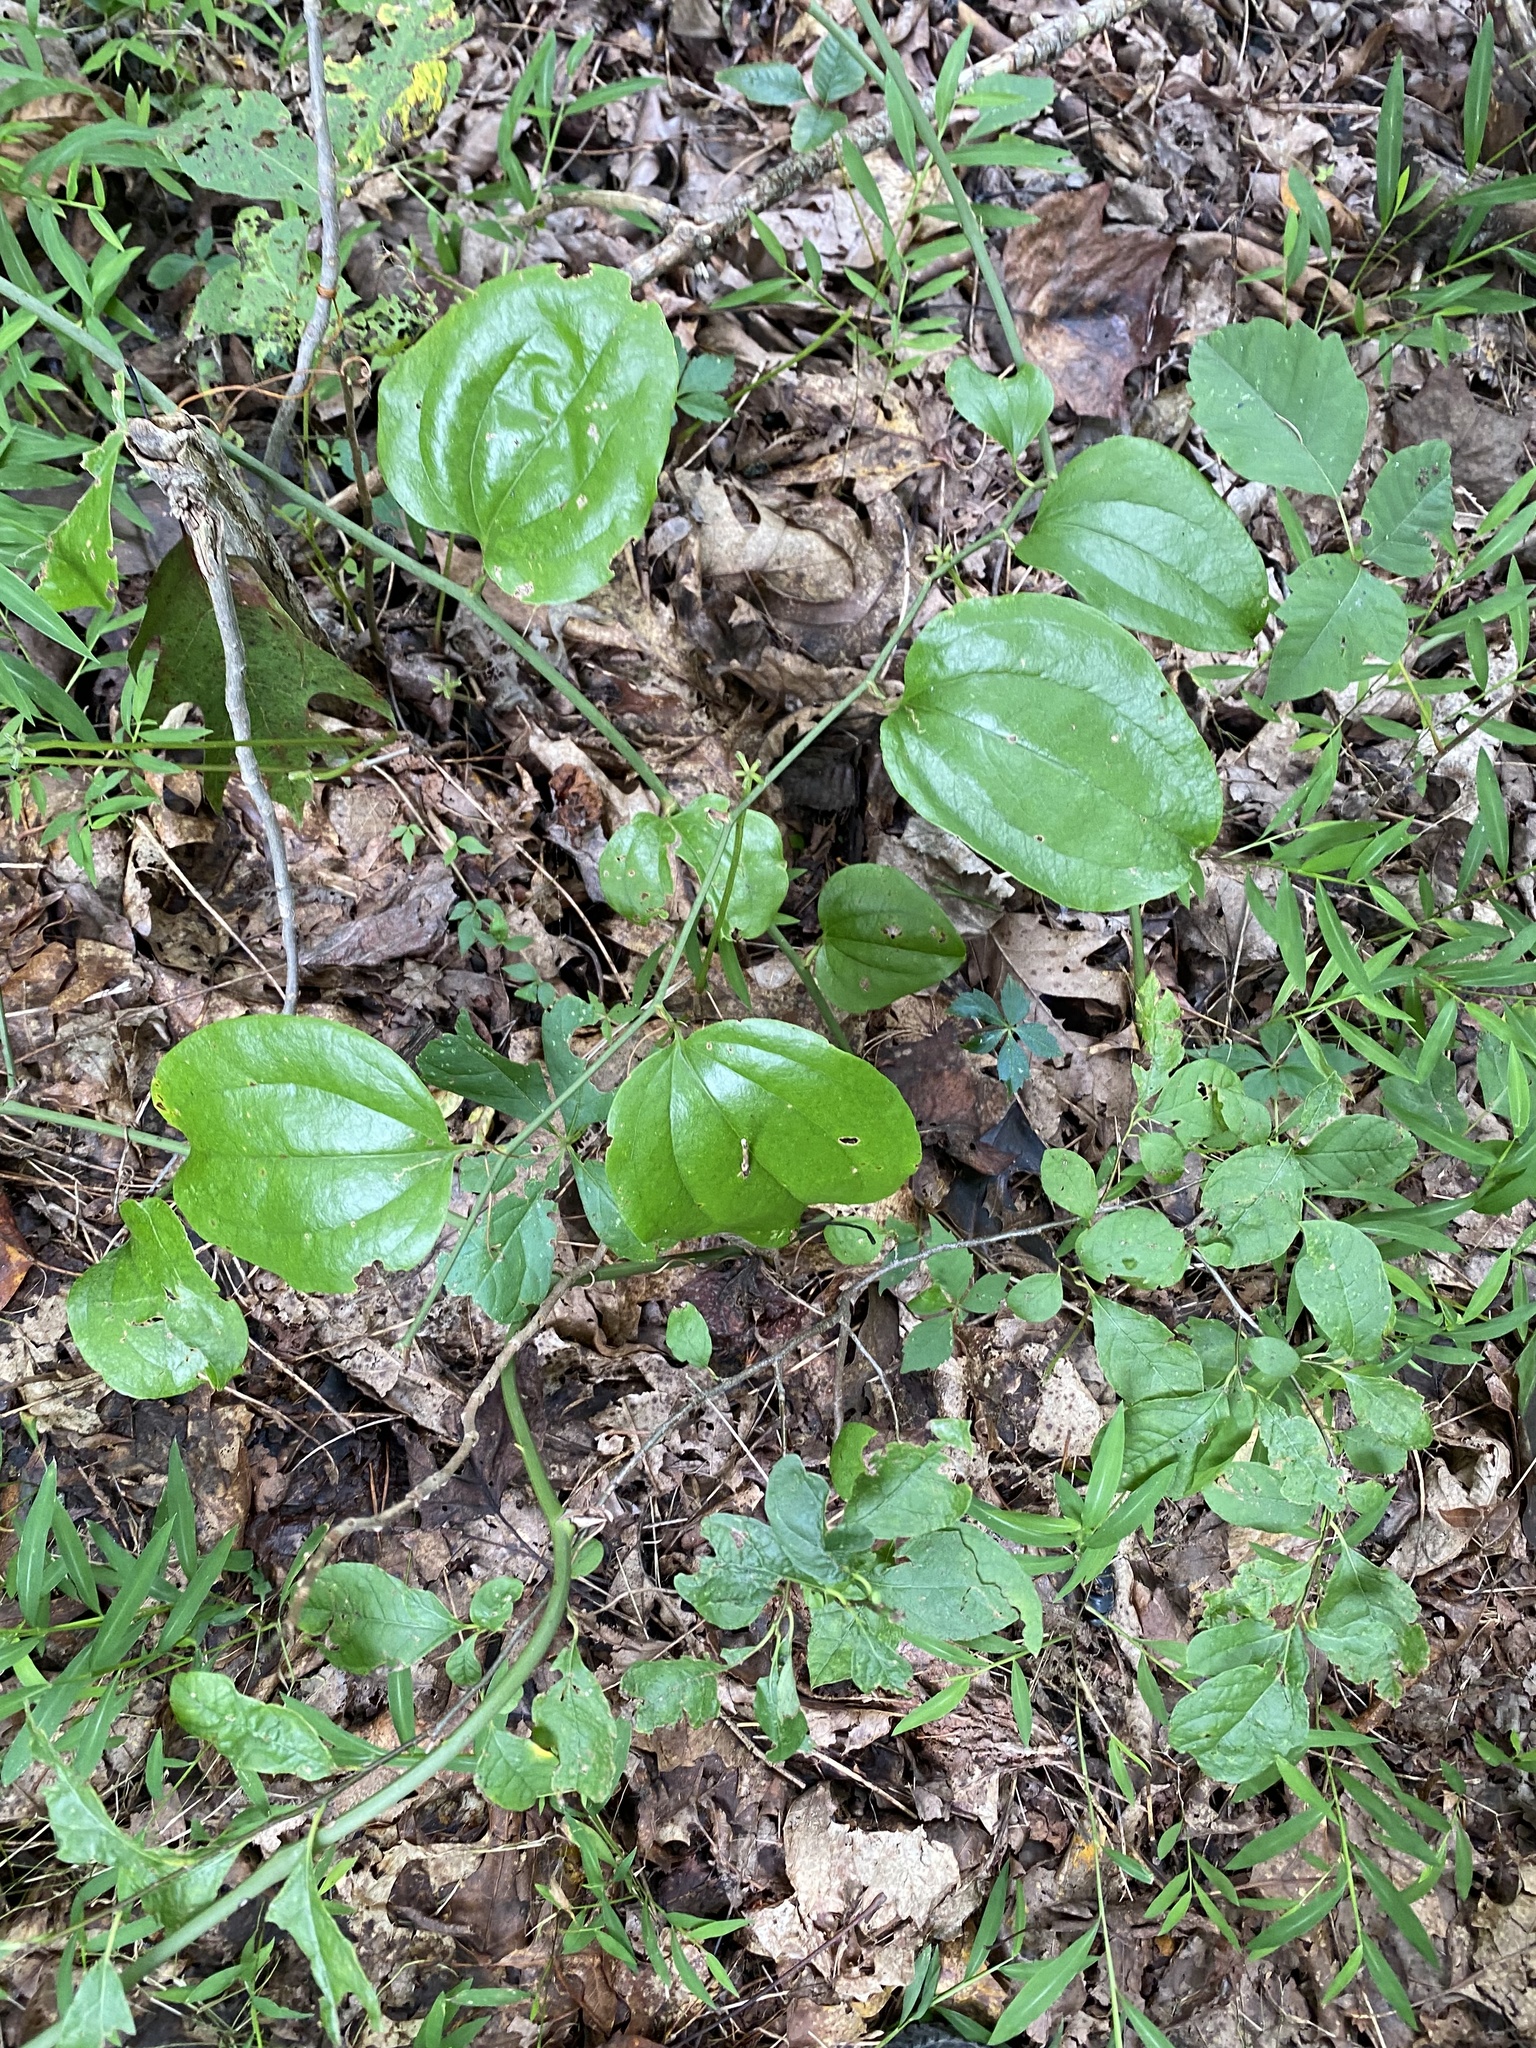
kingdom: Plantae
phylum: Tracheophyta
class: Liliopsida
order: Liliales
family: Smilacaceae
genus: Smilax
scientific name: Smilax rotundifolia
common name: Bullbriar
